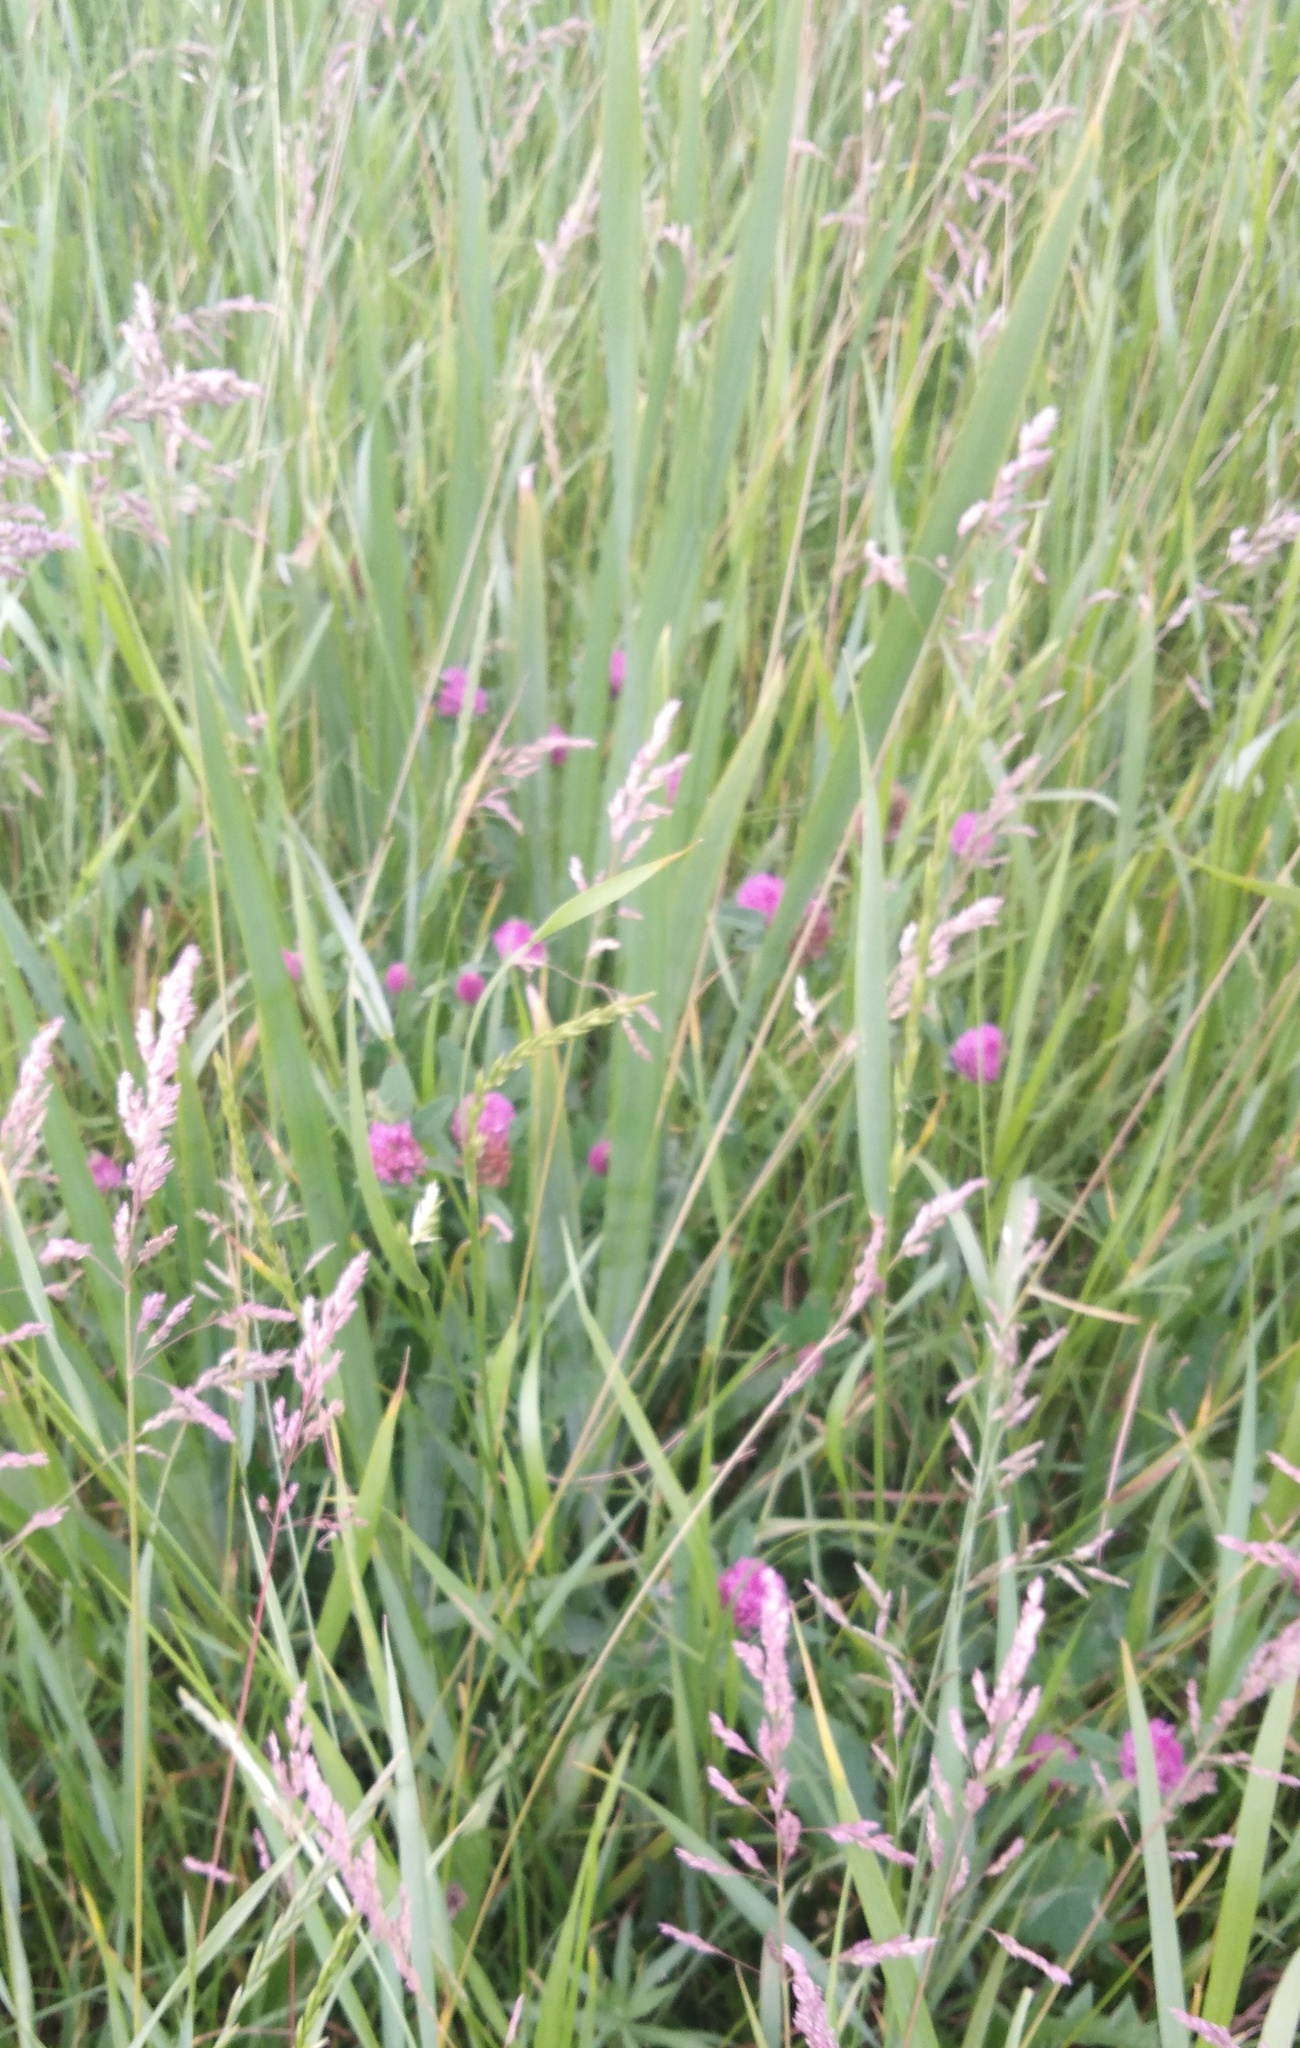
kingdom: Plantae
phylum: Tracheophyta
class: Liliopsida
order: Asparagales
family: Iridaceae
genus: Iris
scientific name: Iris pseudacorus
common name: Yellow flag
